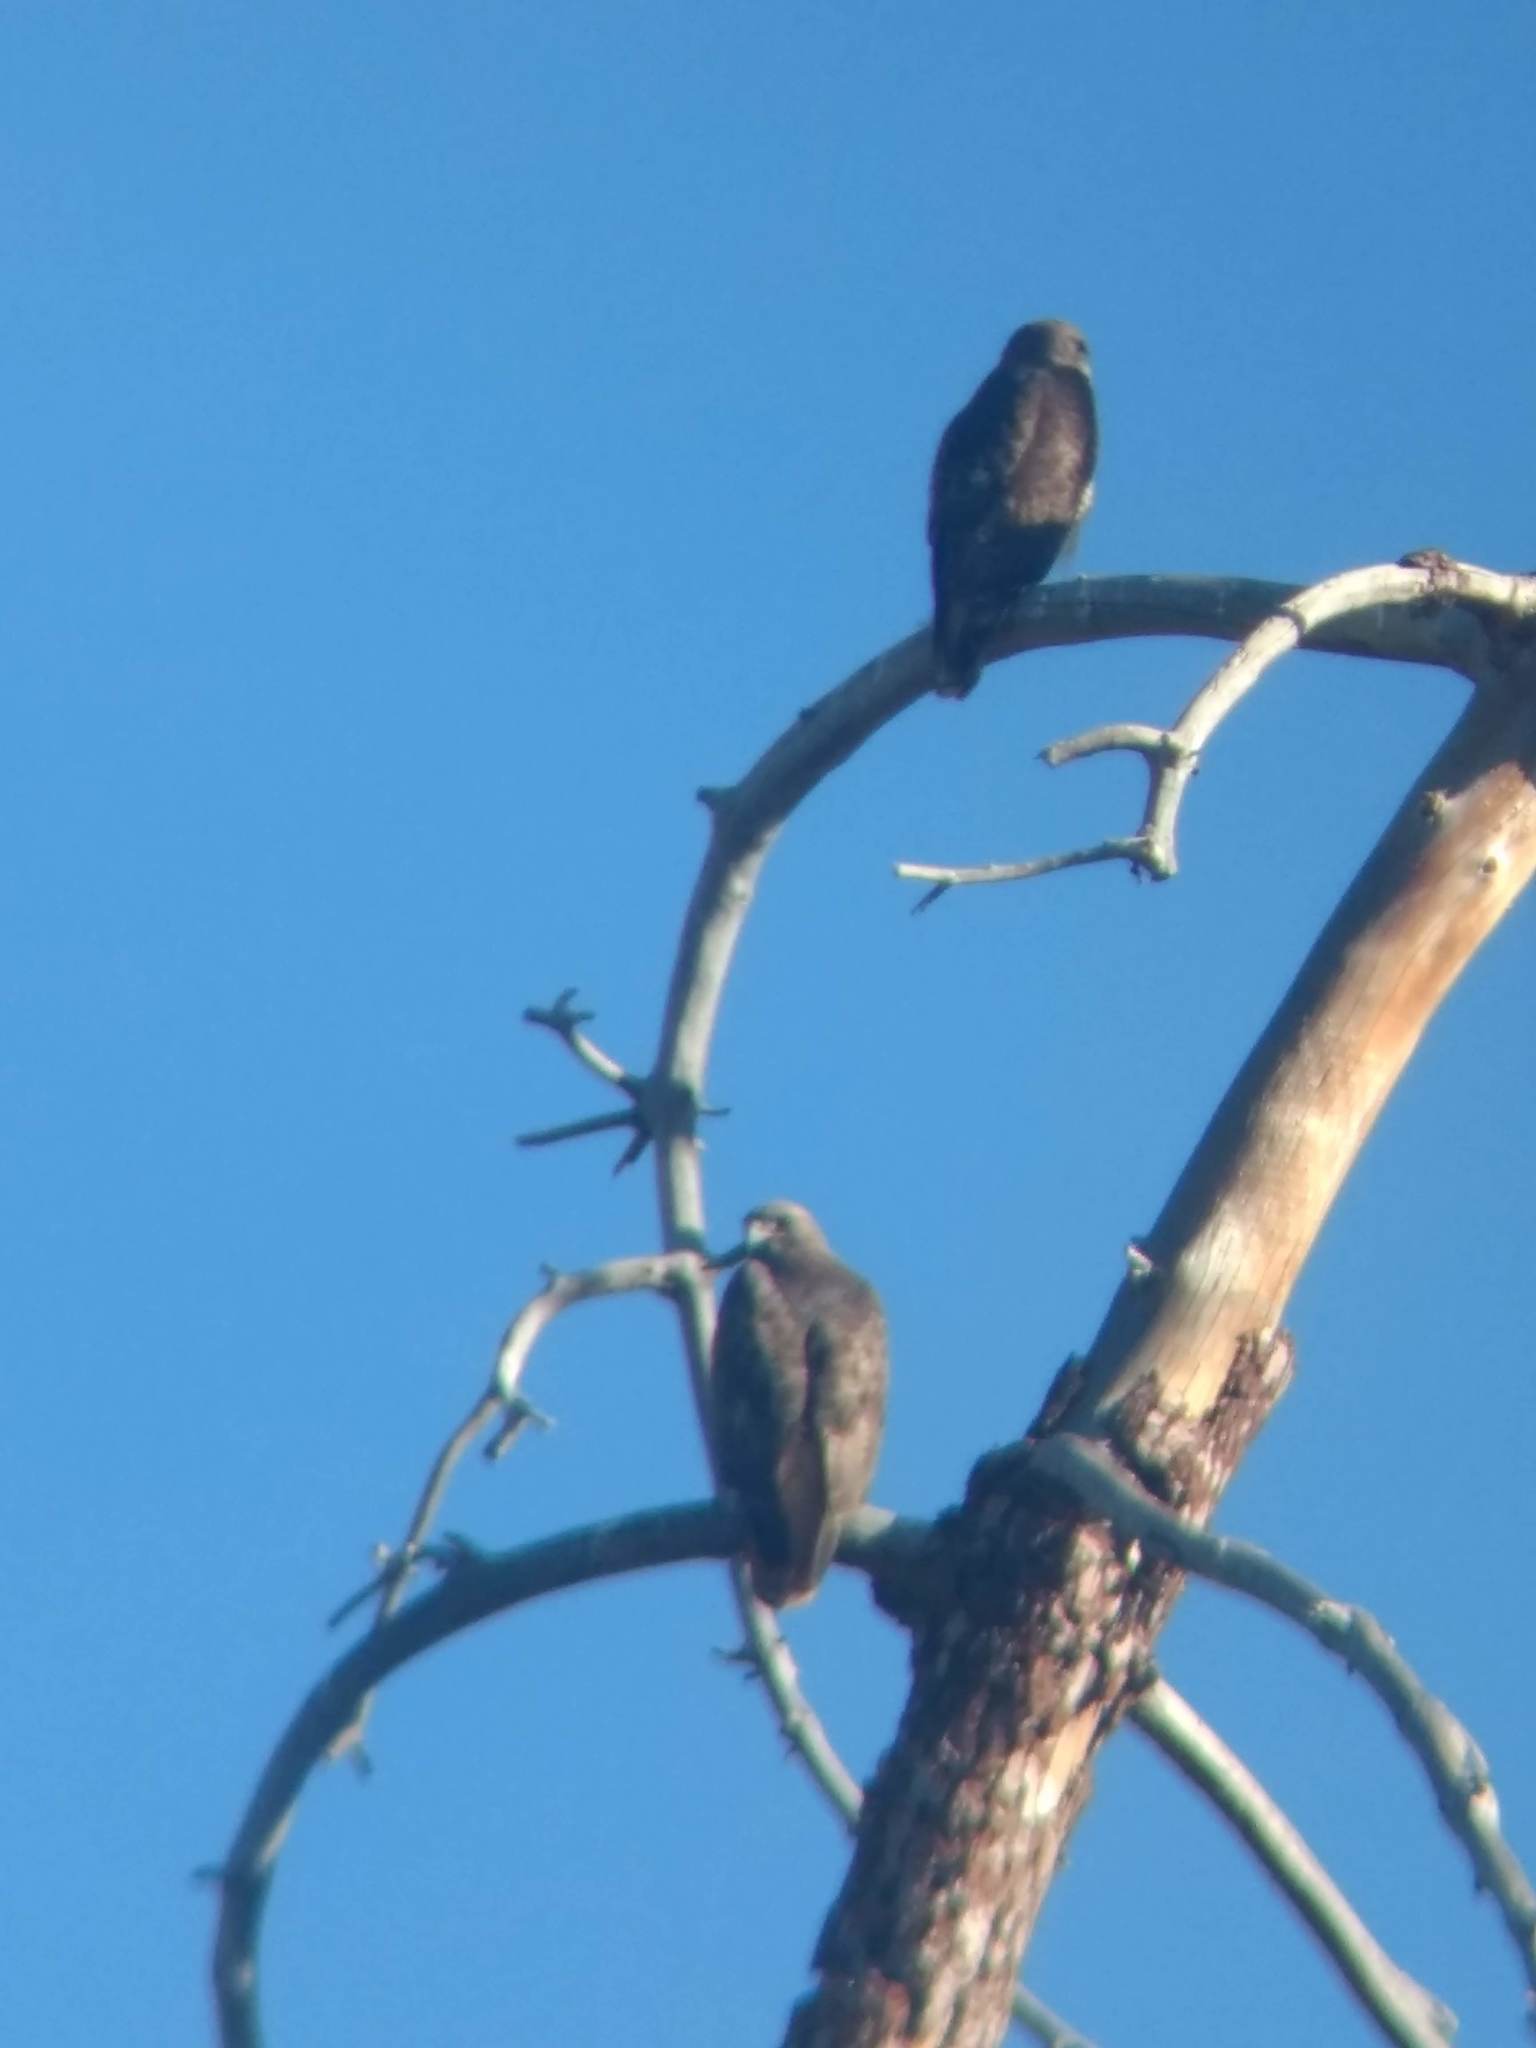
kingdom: Animalia
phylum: Chordata
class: Aves
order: Accipitriformes
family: Accipitridae
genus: Buteo
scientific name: Buteo jamaicensis
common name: Red-tailed hawk
